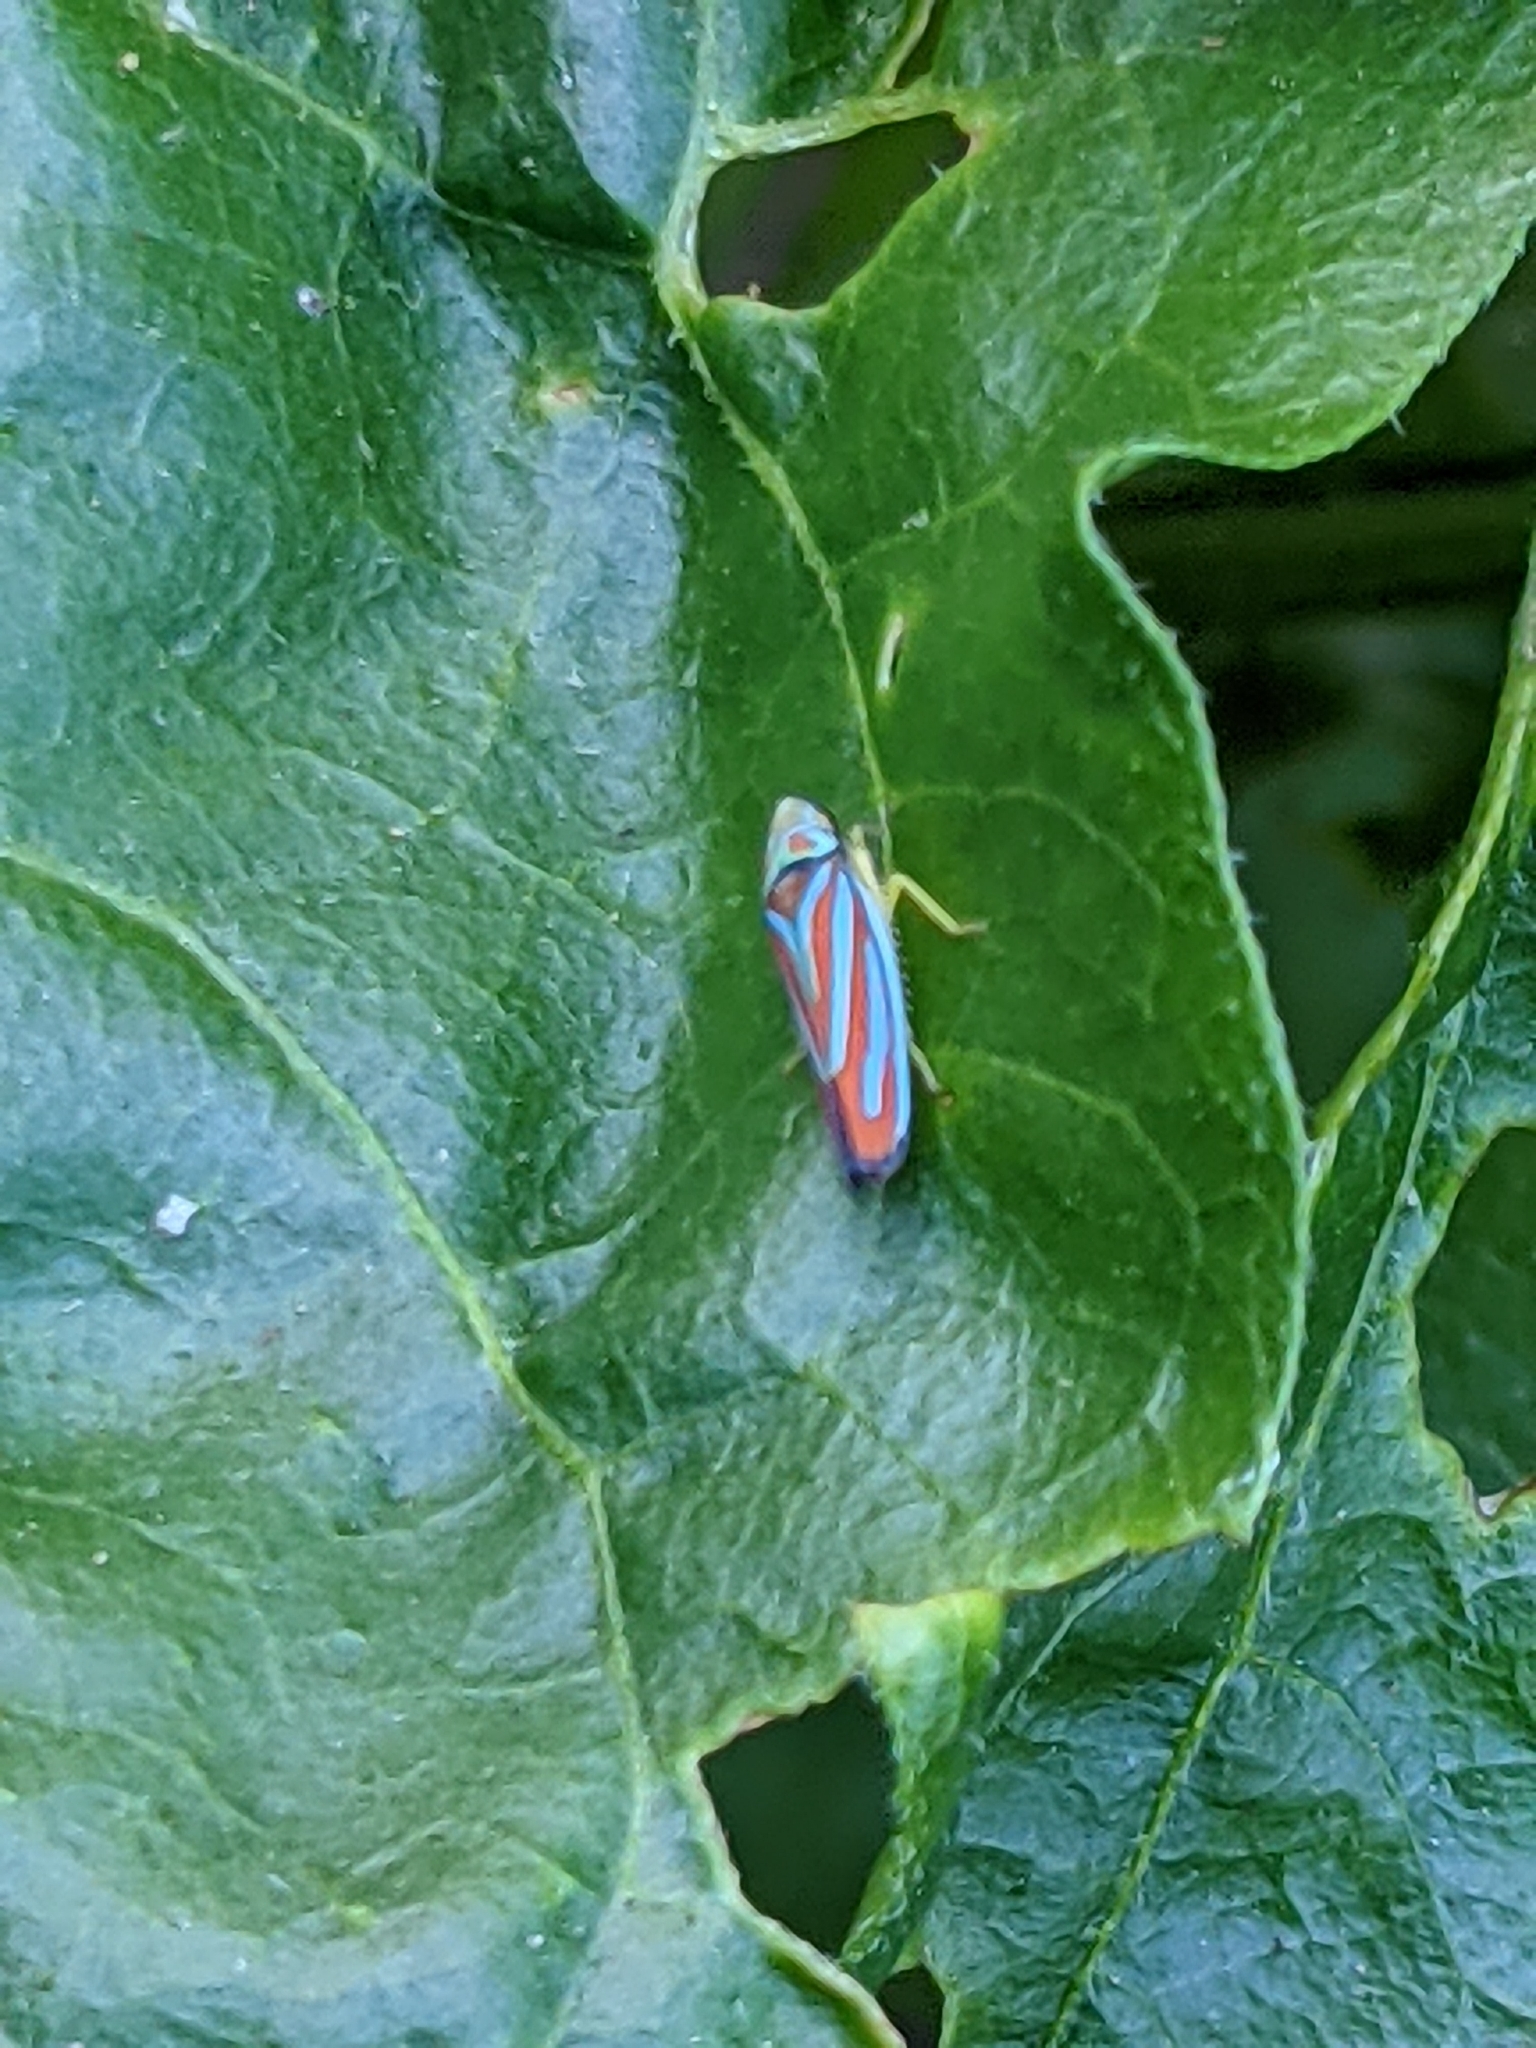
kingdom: Animalia
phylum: Arthropoda
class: Insecta
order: Hemiptera
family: Cicadellidae
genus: Graphocephala
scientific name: Graphocephala coccinea
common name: Candy-striped leafhopper
